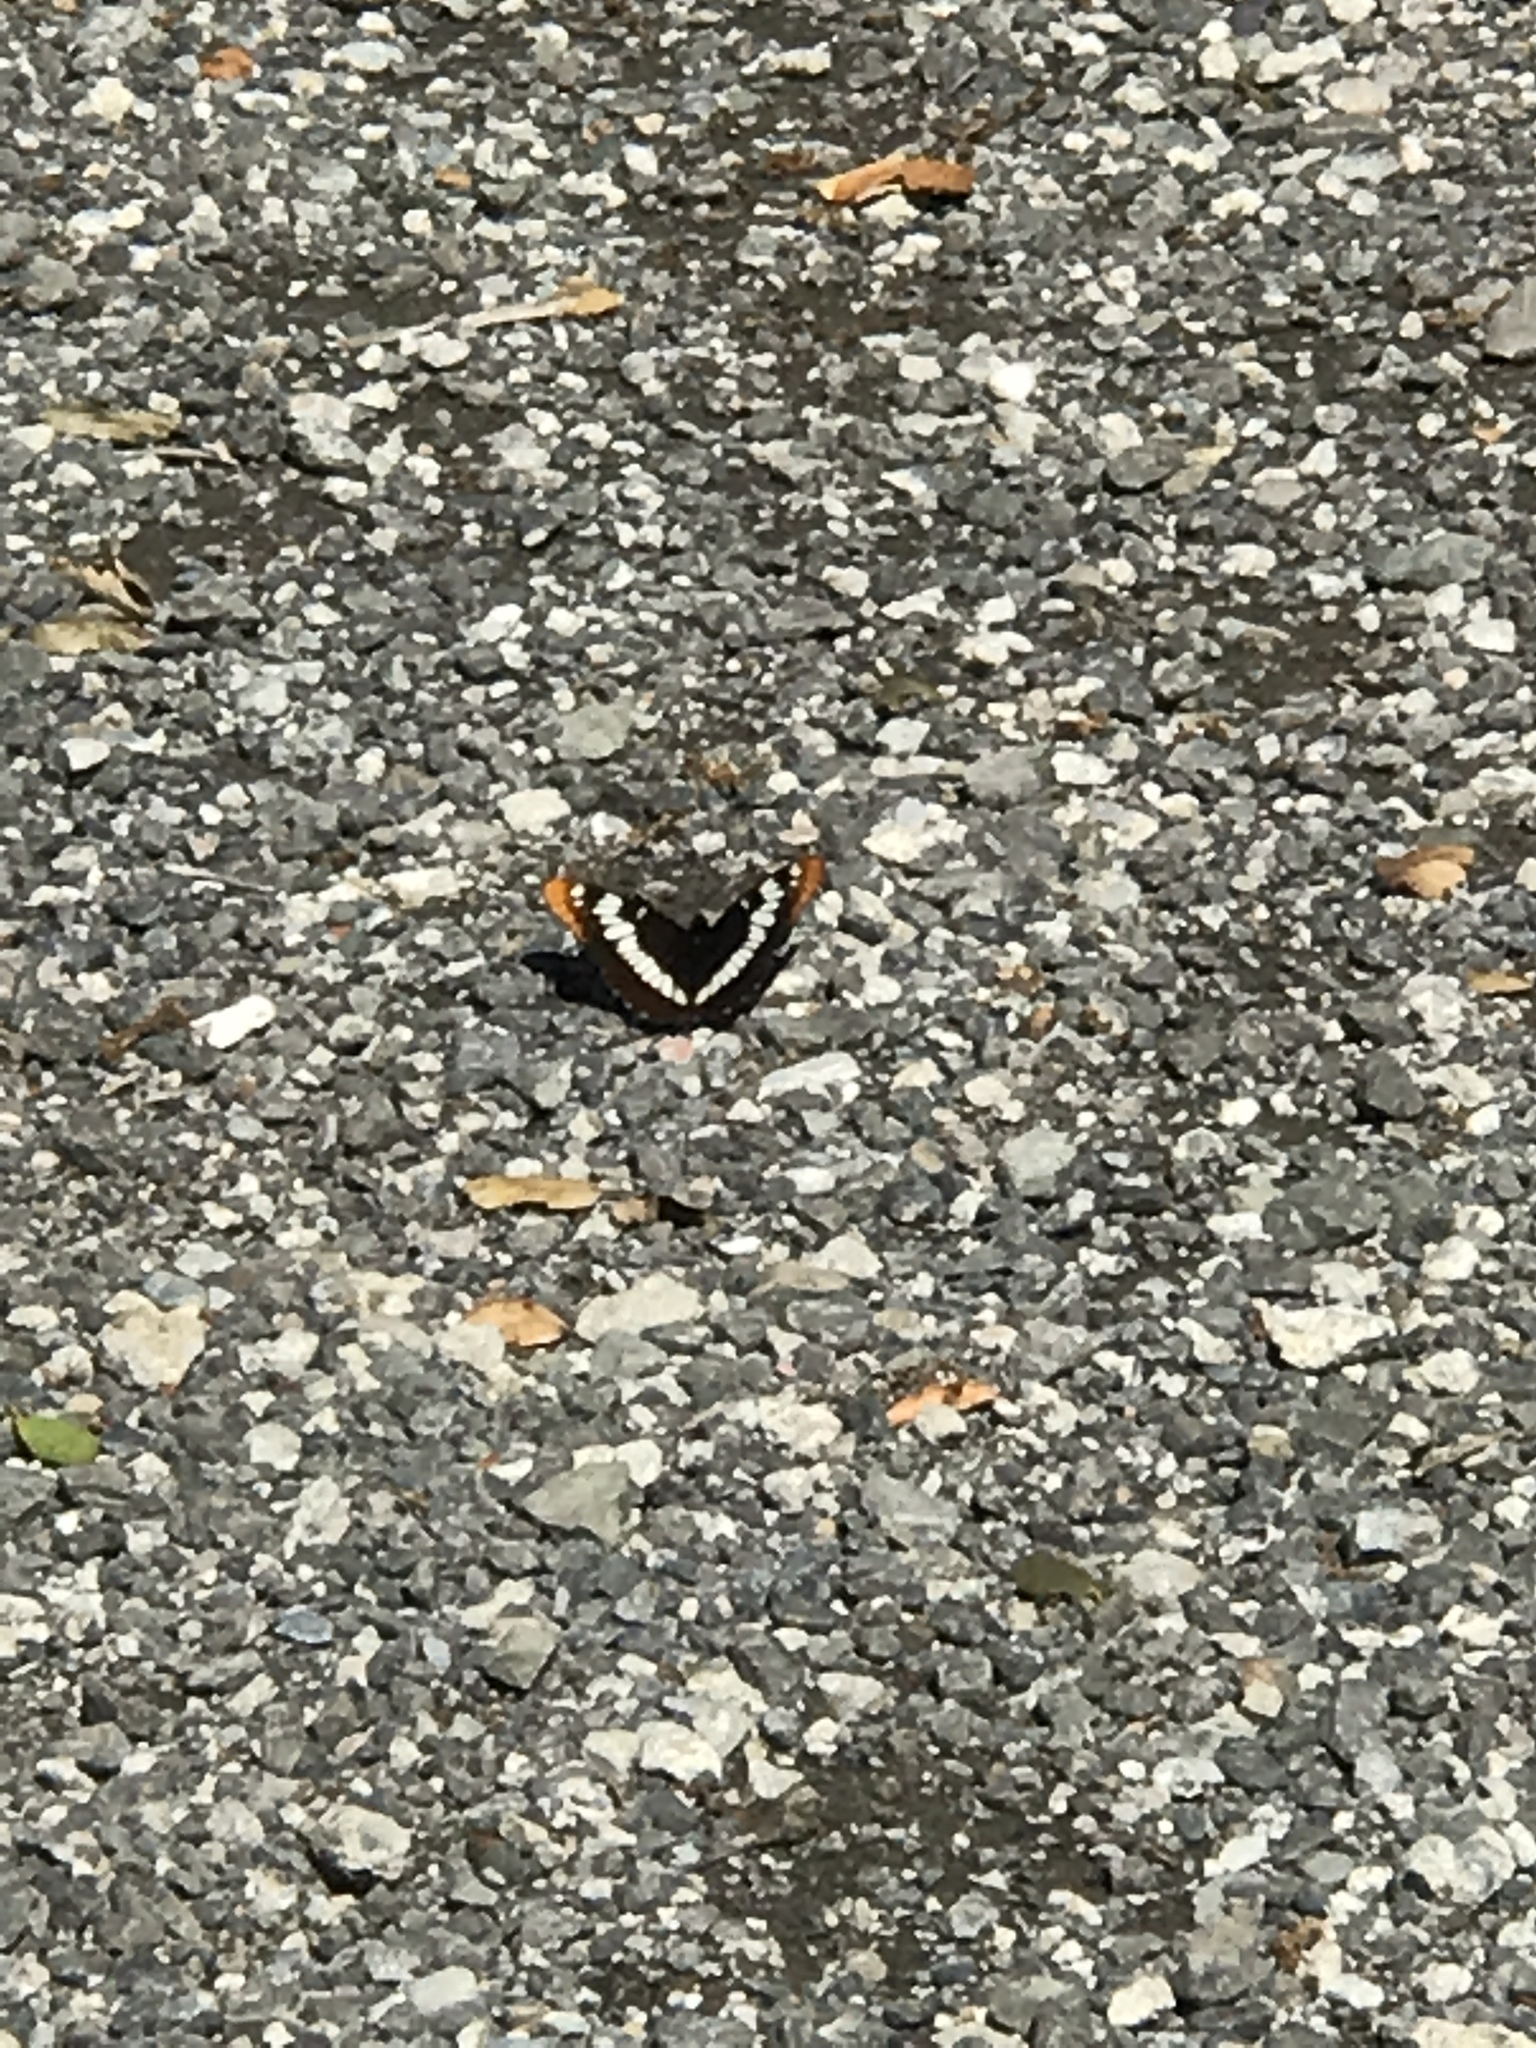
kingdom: Animalia
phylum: Arthropoda
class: Insecta
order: Lepidoptera
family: Nymphalidae
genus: Limenitis
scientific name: Limenitis lorquini
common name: Lorquin's admiral
